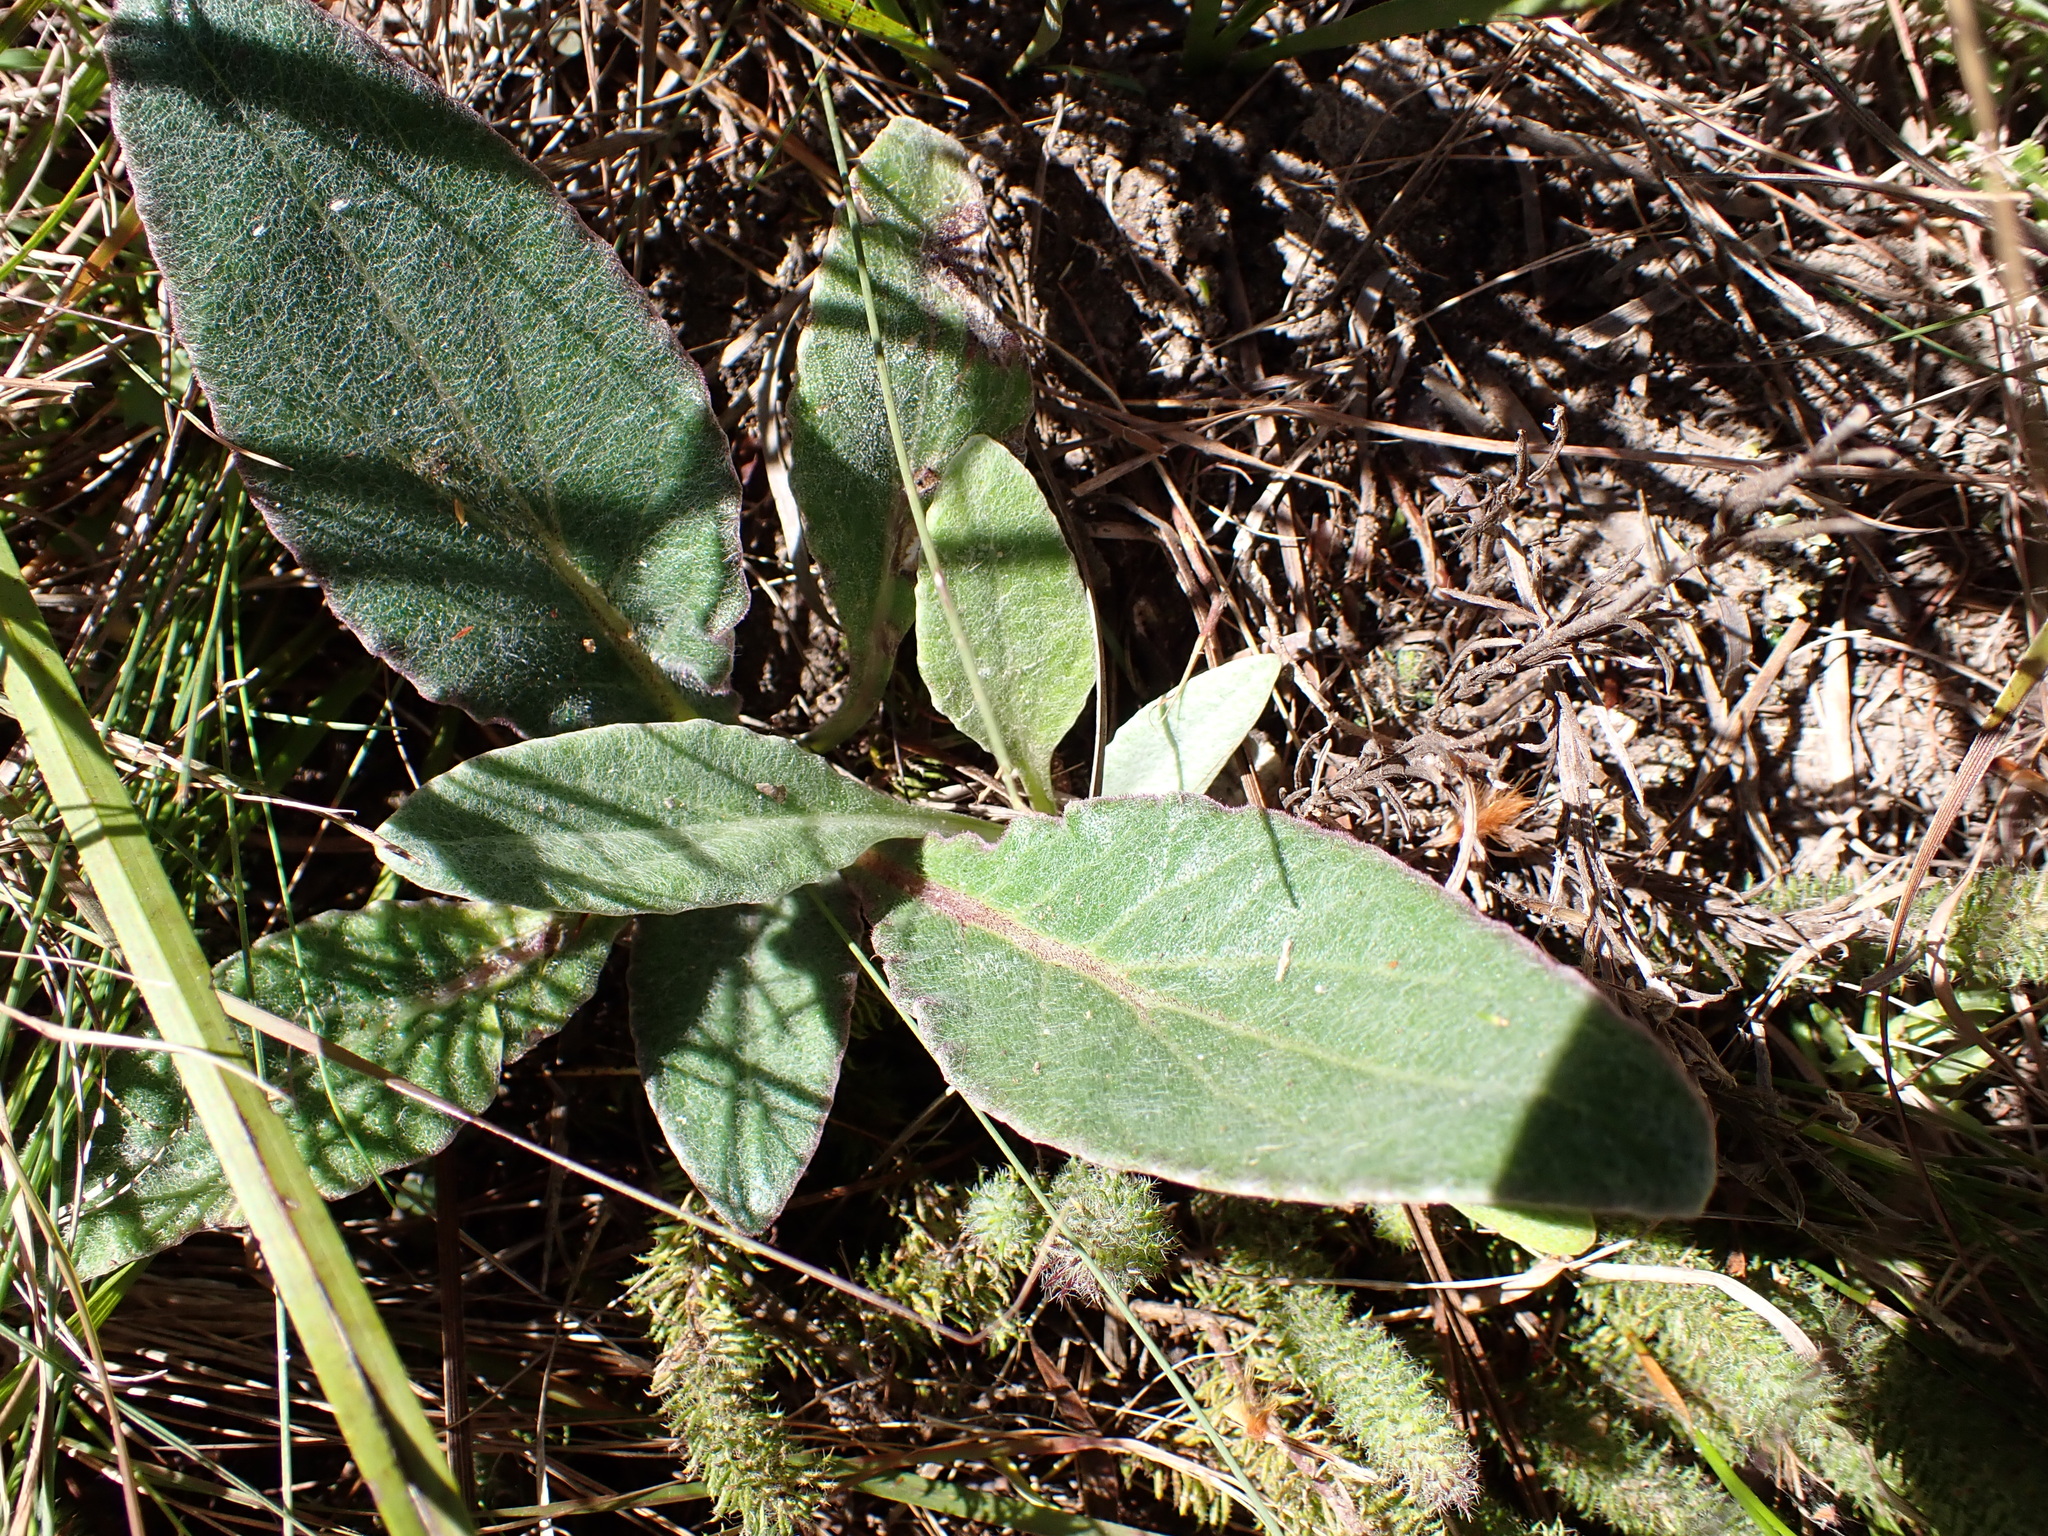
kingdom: Plantae
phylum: Tracheophyta
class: Magnoliopsida
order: Asterales
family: Asteraceae
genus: Haplocarpha
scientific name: Haplocarpha lanata
